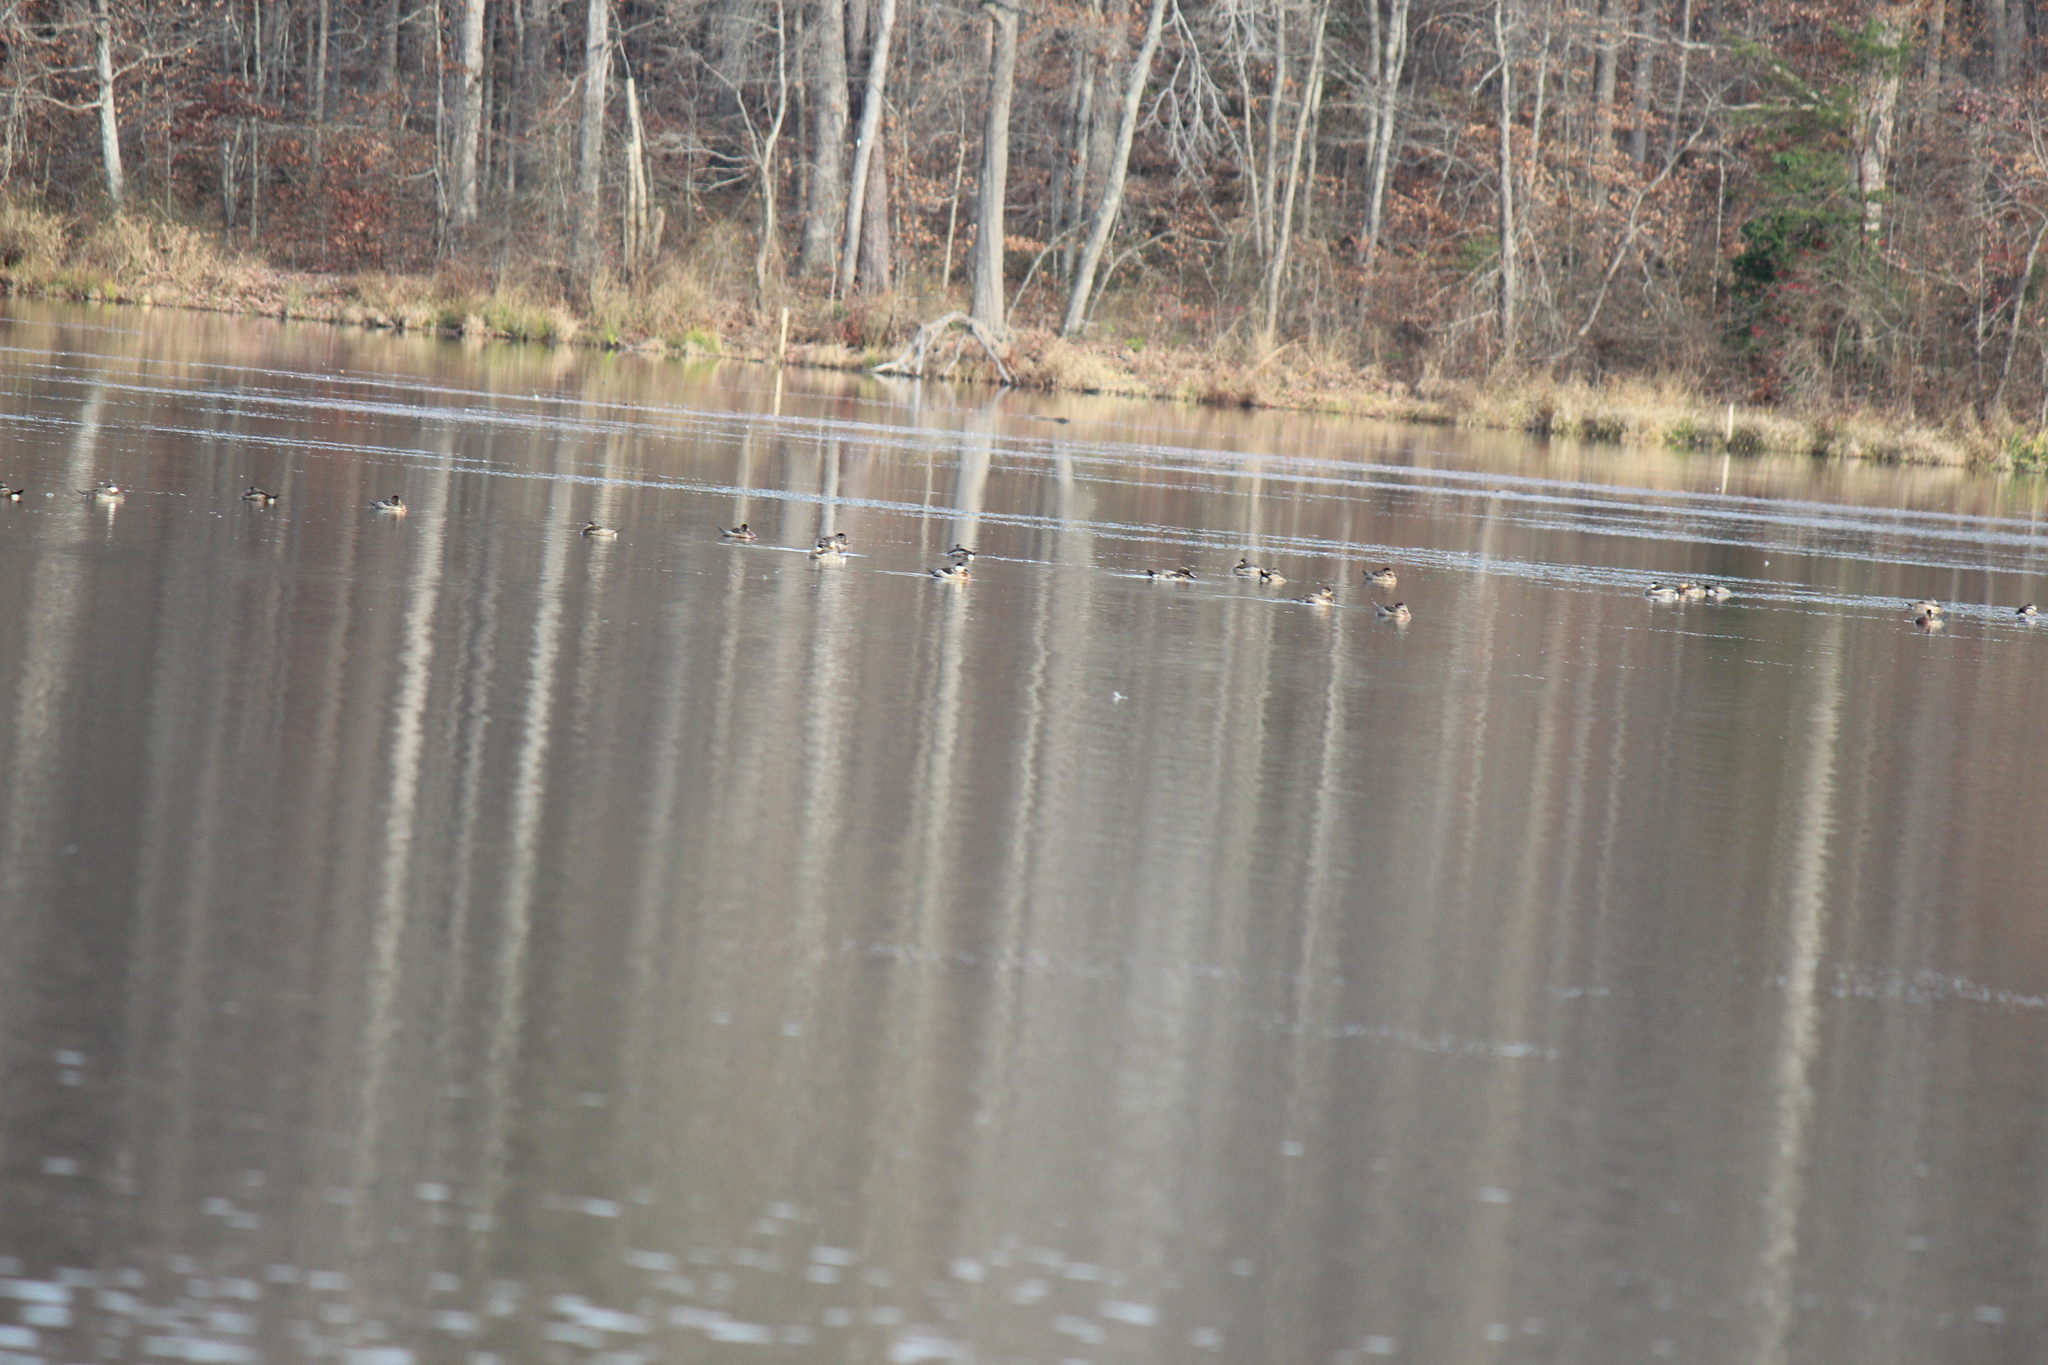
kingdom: Animalia
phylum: Chordata
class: Aves
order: Anseriformes
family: Anatidae
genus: Oxyura
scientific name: Oxyura jamaicensis
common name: Ruddy duck
